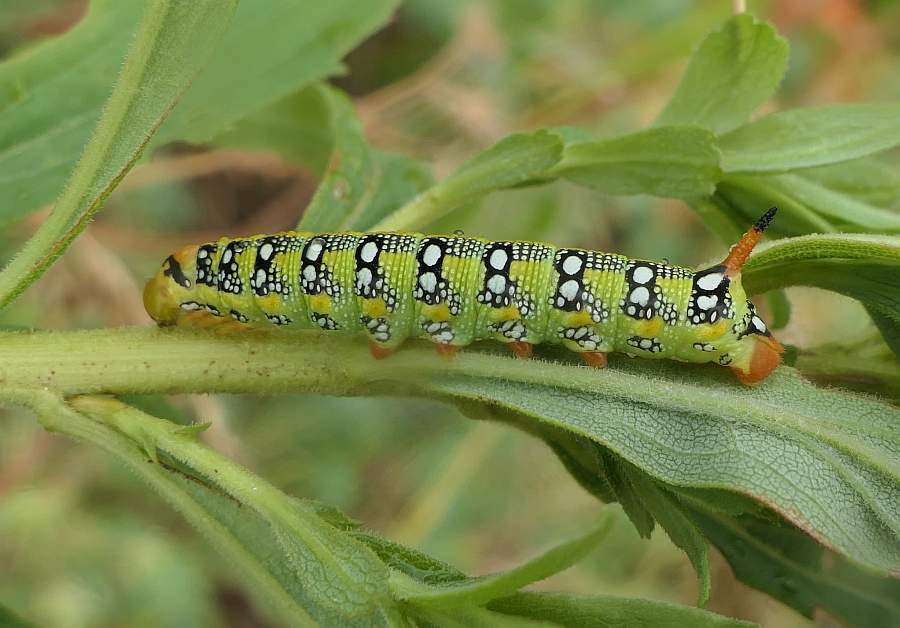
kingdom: Animalia
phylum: Arthropoda
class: Insecta
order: Lepidoptera
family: Sphingidae
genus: Hyles
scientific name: Hyles euphorbiae
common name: Spurge hawk-moth
